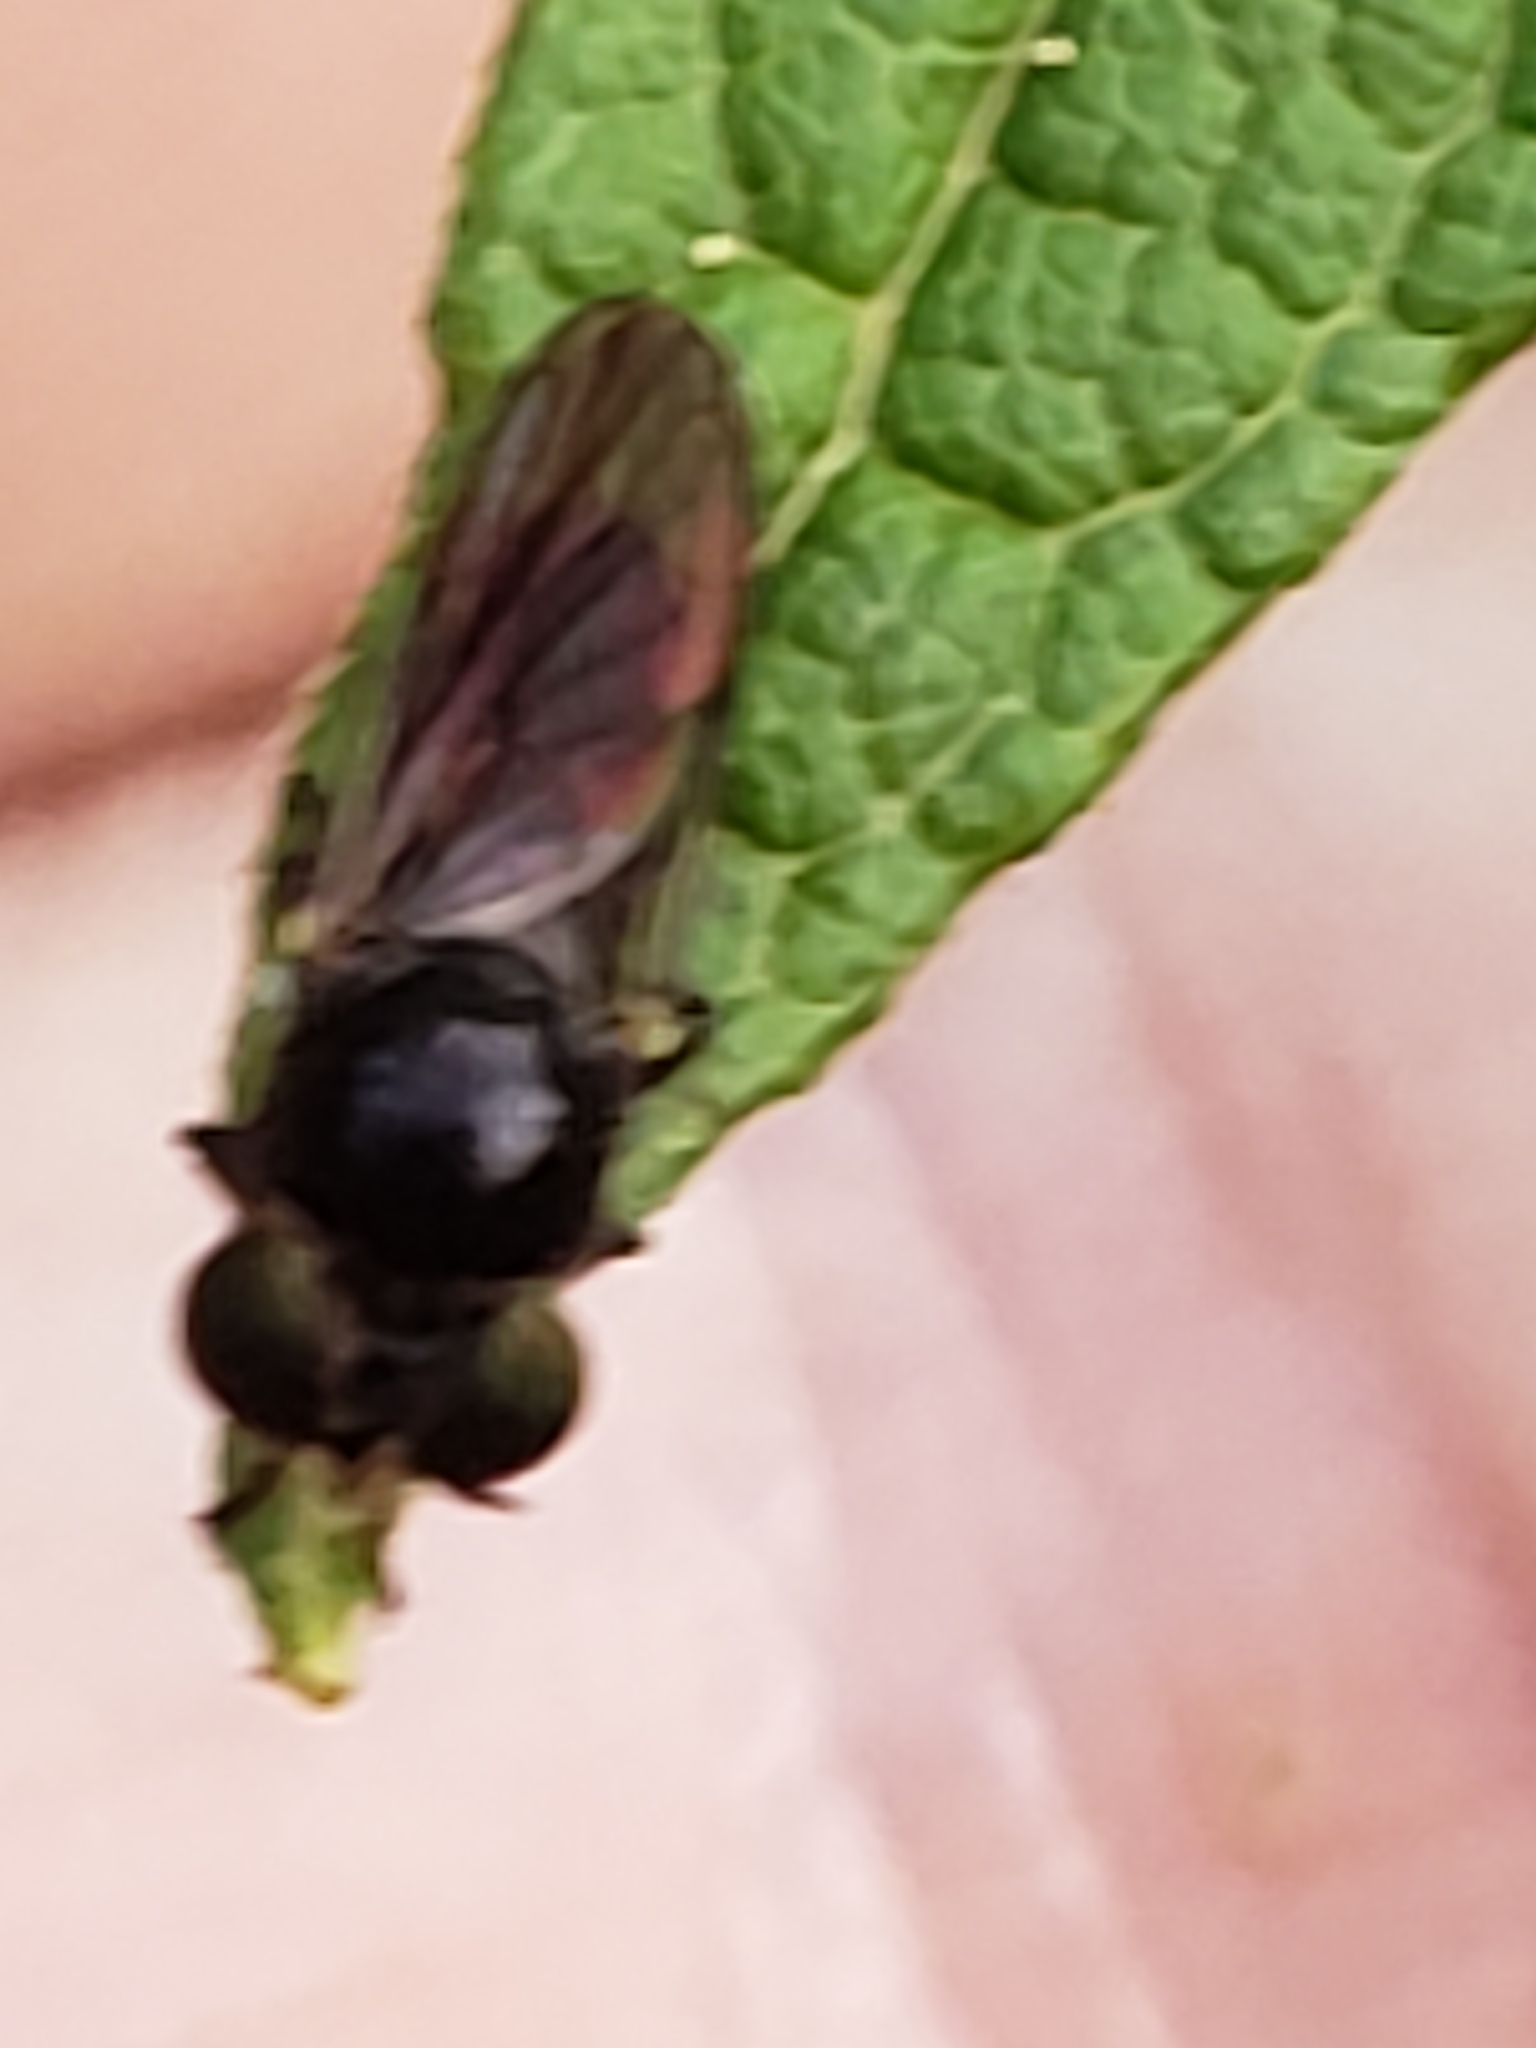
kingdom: Animalia
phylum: Arthropoda
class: Insecta
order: Diptera
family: Asilidae
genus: Cerotainia
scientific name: Cerotainia macrocera
